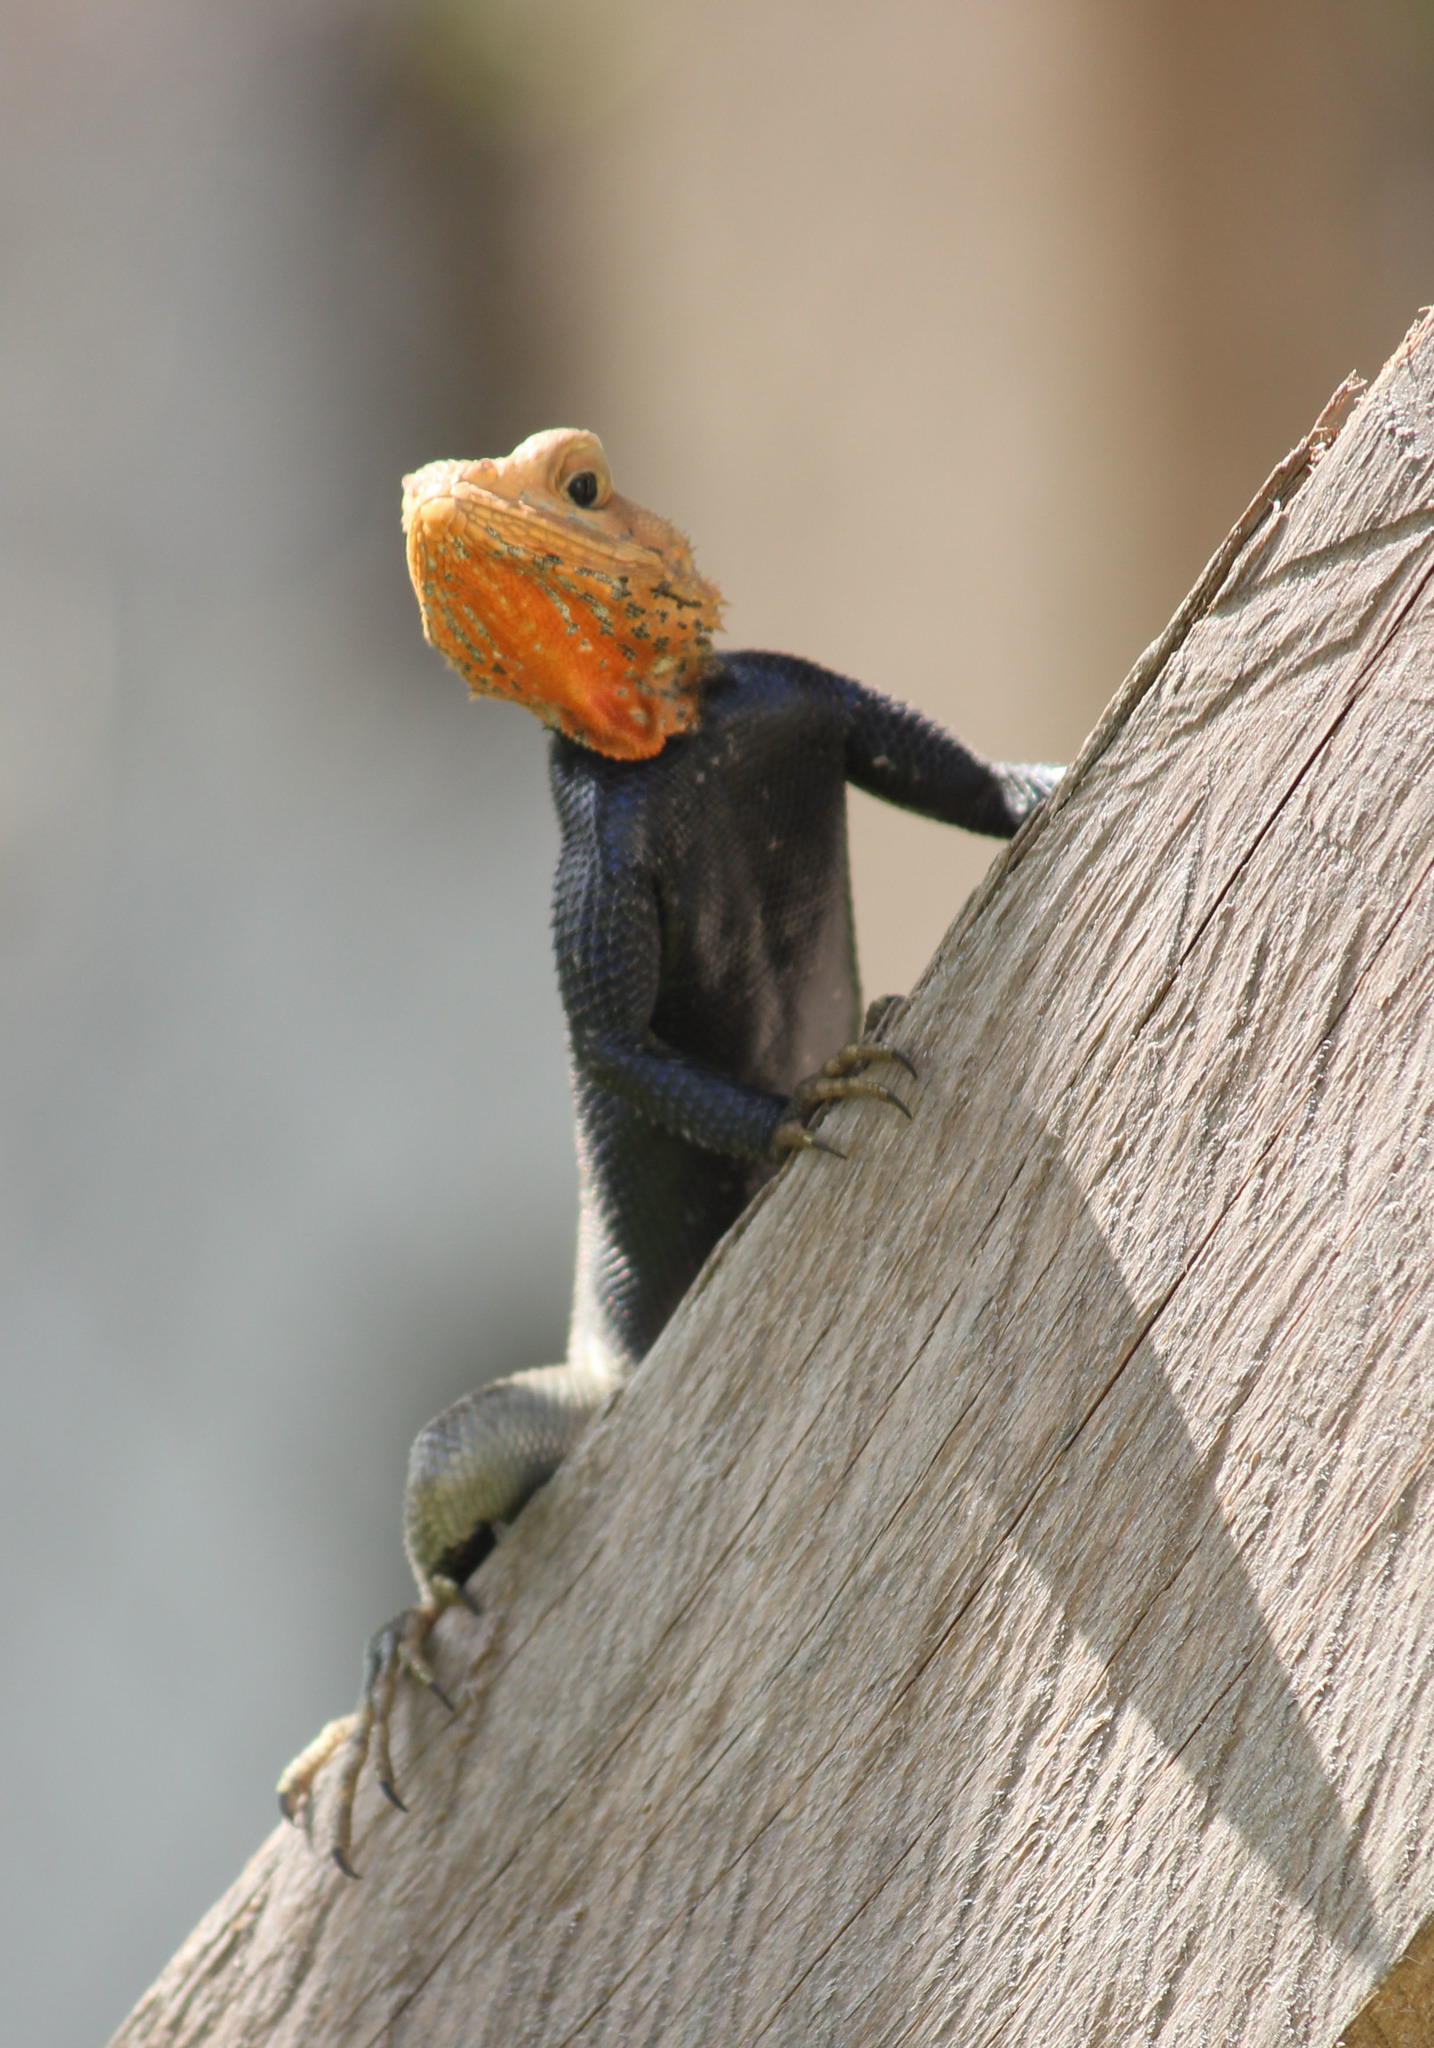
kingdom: Animalia
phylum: Chordata
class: Squamata
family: Agamidae
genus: Agama
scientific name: Agama agama
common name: Common agama
